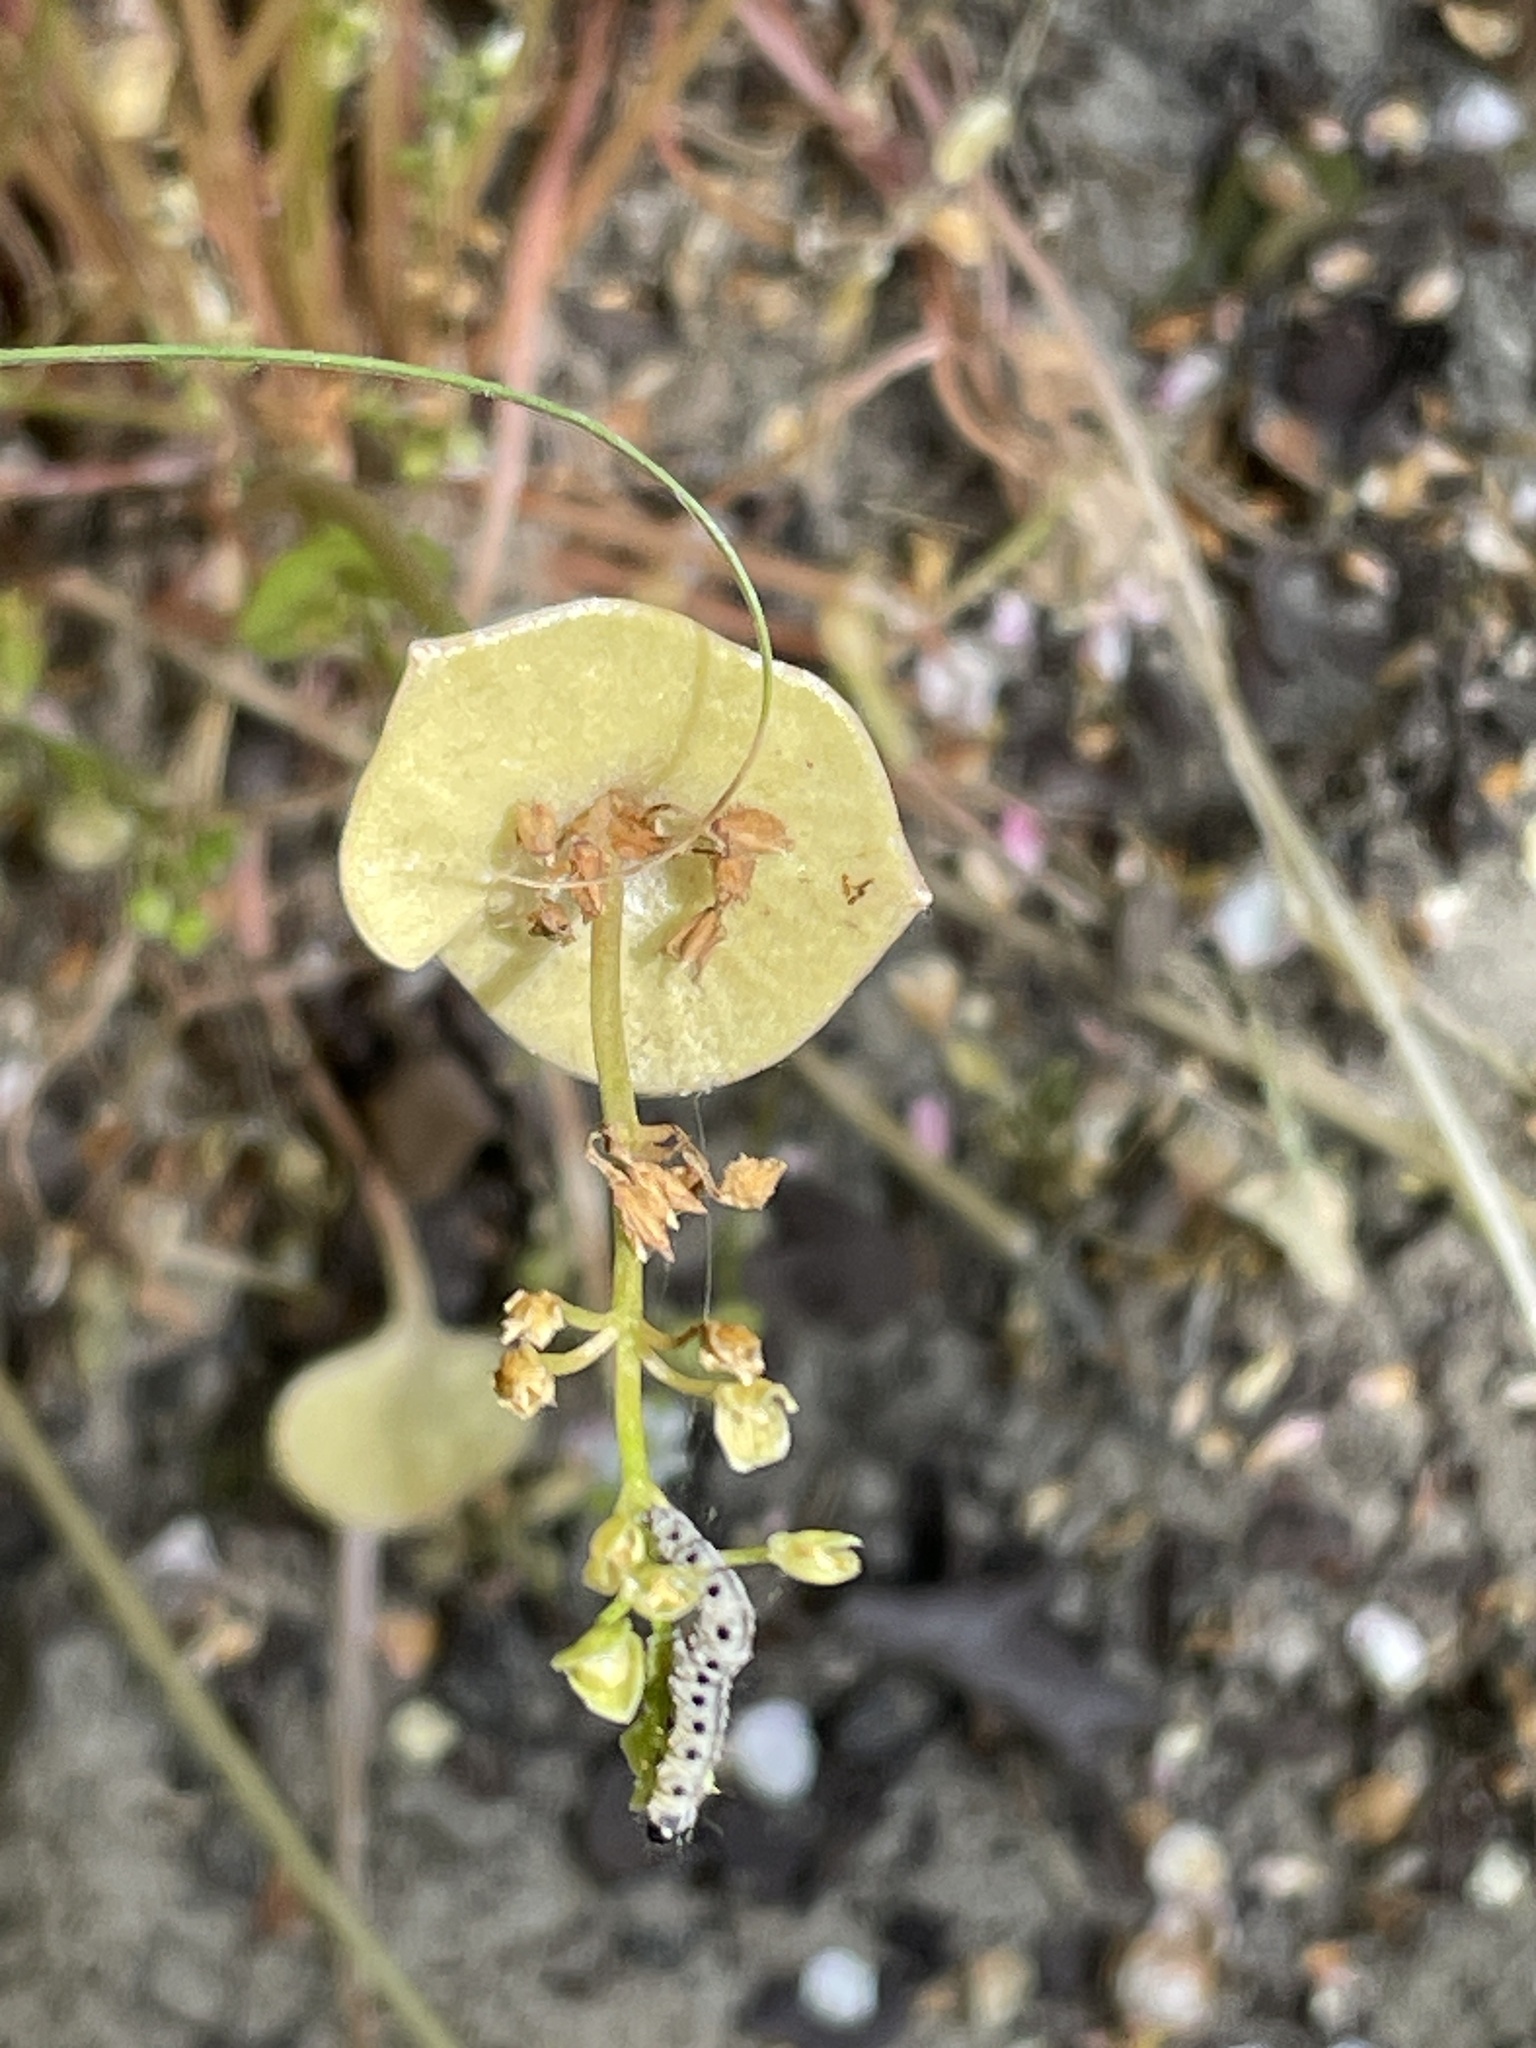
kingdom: Plantae
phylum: Tracheophyta
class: Magnoliopsida
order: Caryophyllales
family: Montiaceae
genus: Claytonia
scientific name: Claytonia perfoliata
